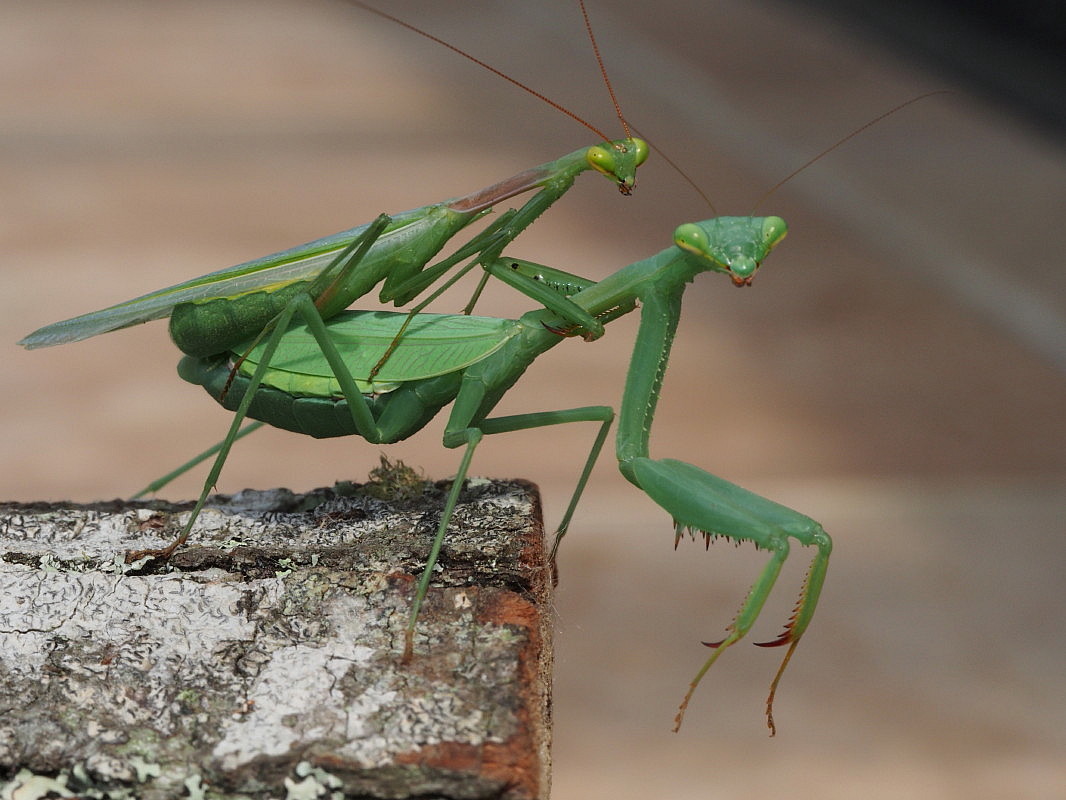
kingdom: Animalia
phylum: Arthropoda
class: Insecta
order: Mantodea
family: Miomantidae
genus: Miomantis
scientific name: Miomantis caffra
